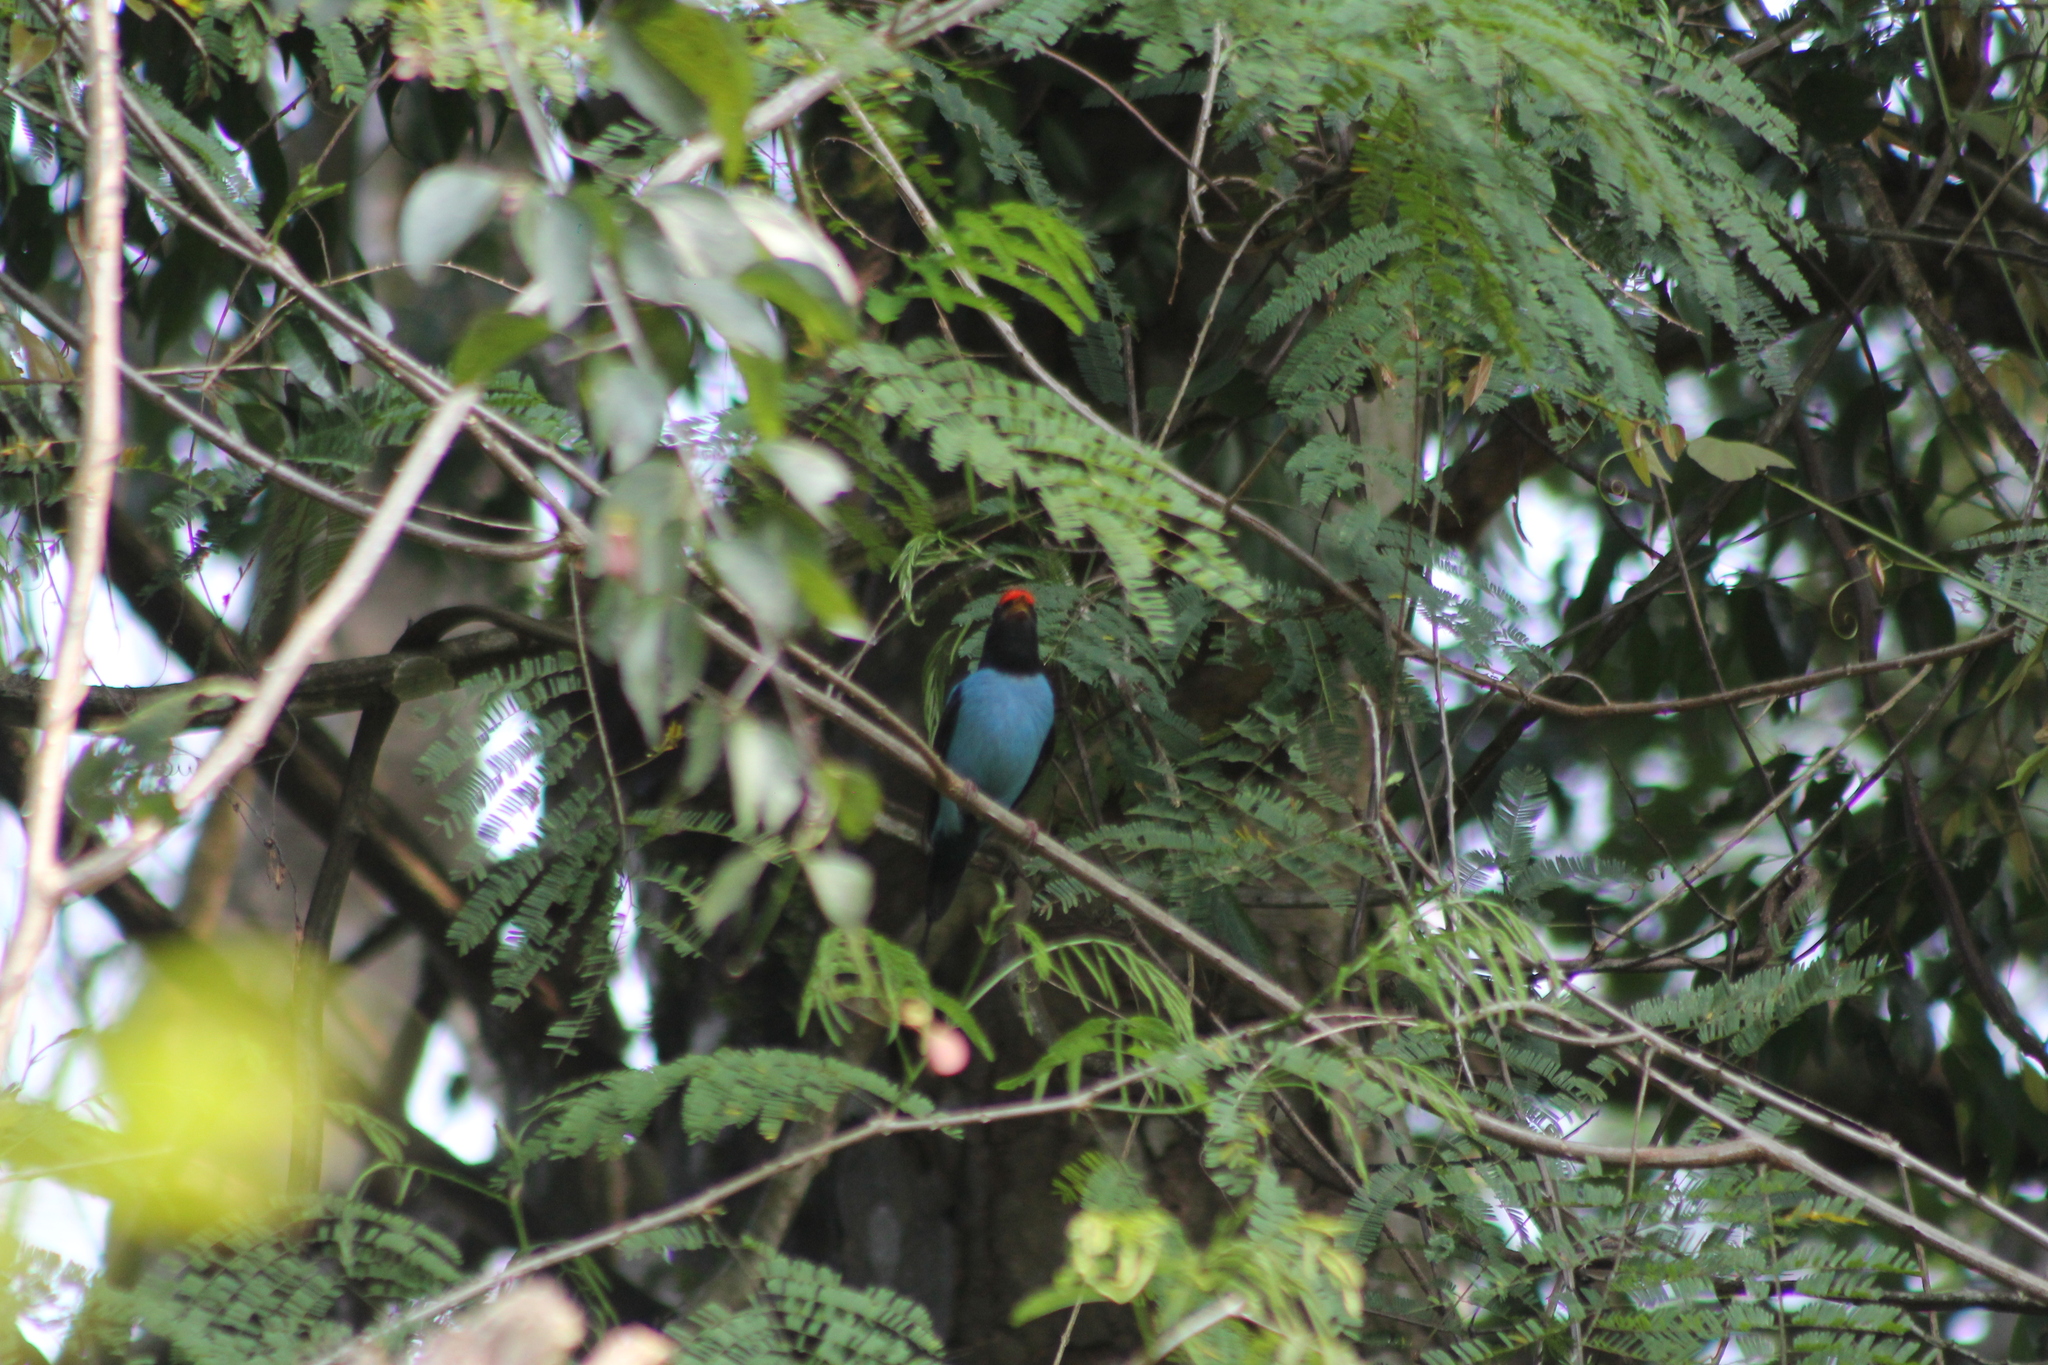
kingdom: Animalia
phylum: Chordata
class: Aves
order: Passeriformes
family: Pipridae
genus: Chiroxiphia
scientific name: Chiroxiphia caudata
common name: Blue manakin
